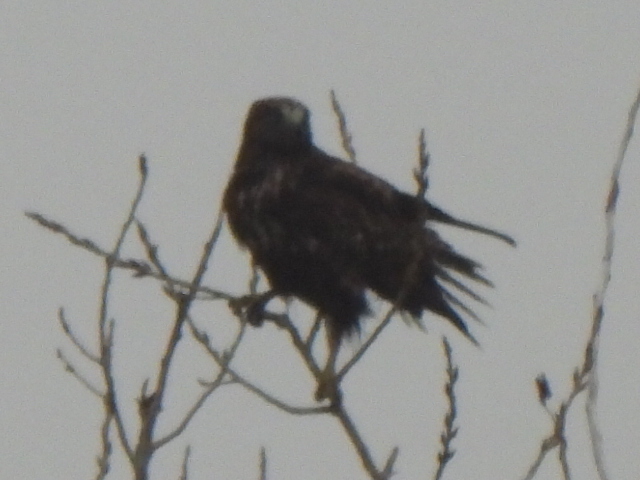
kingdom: Animalia
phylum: Chordata
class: Aves
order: Accipitriformes
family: Accipitridae
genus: Buteo
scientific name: Buteo jamaicensis
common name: Red-tailed hawk
